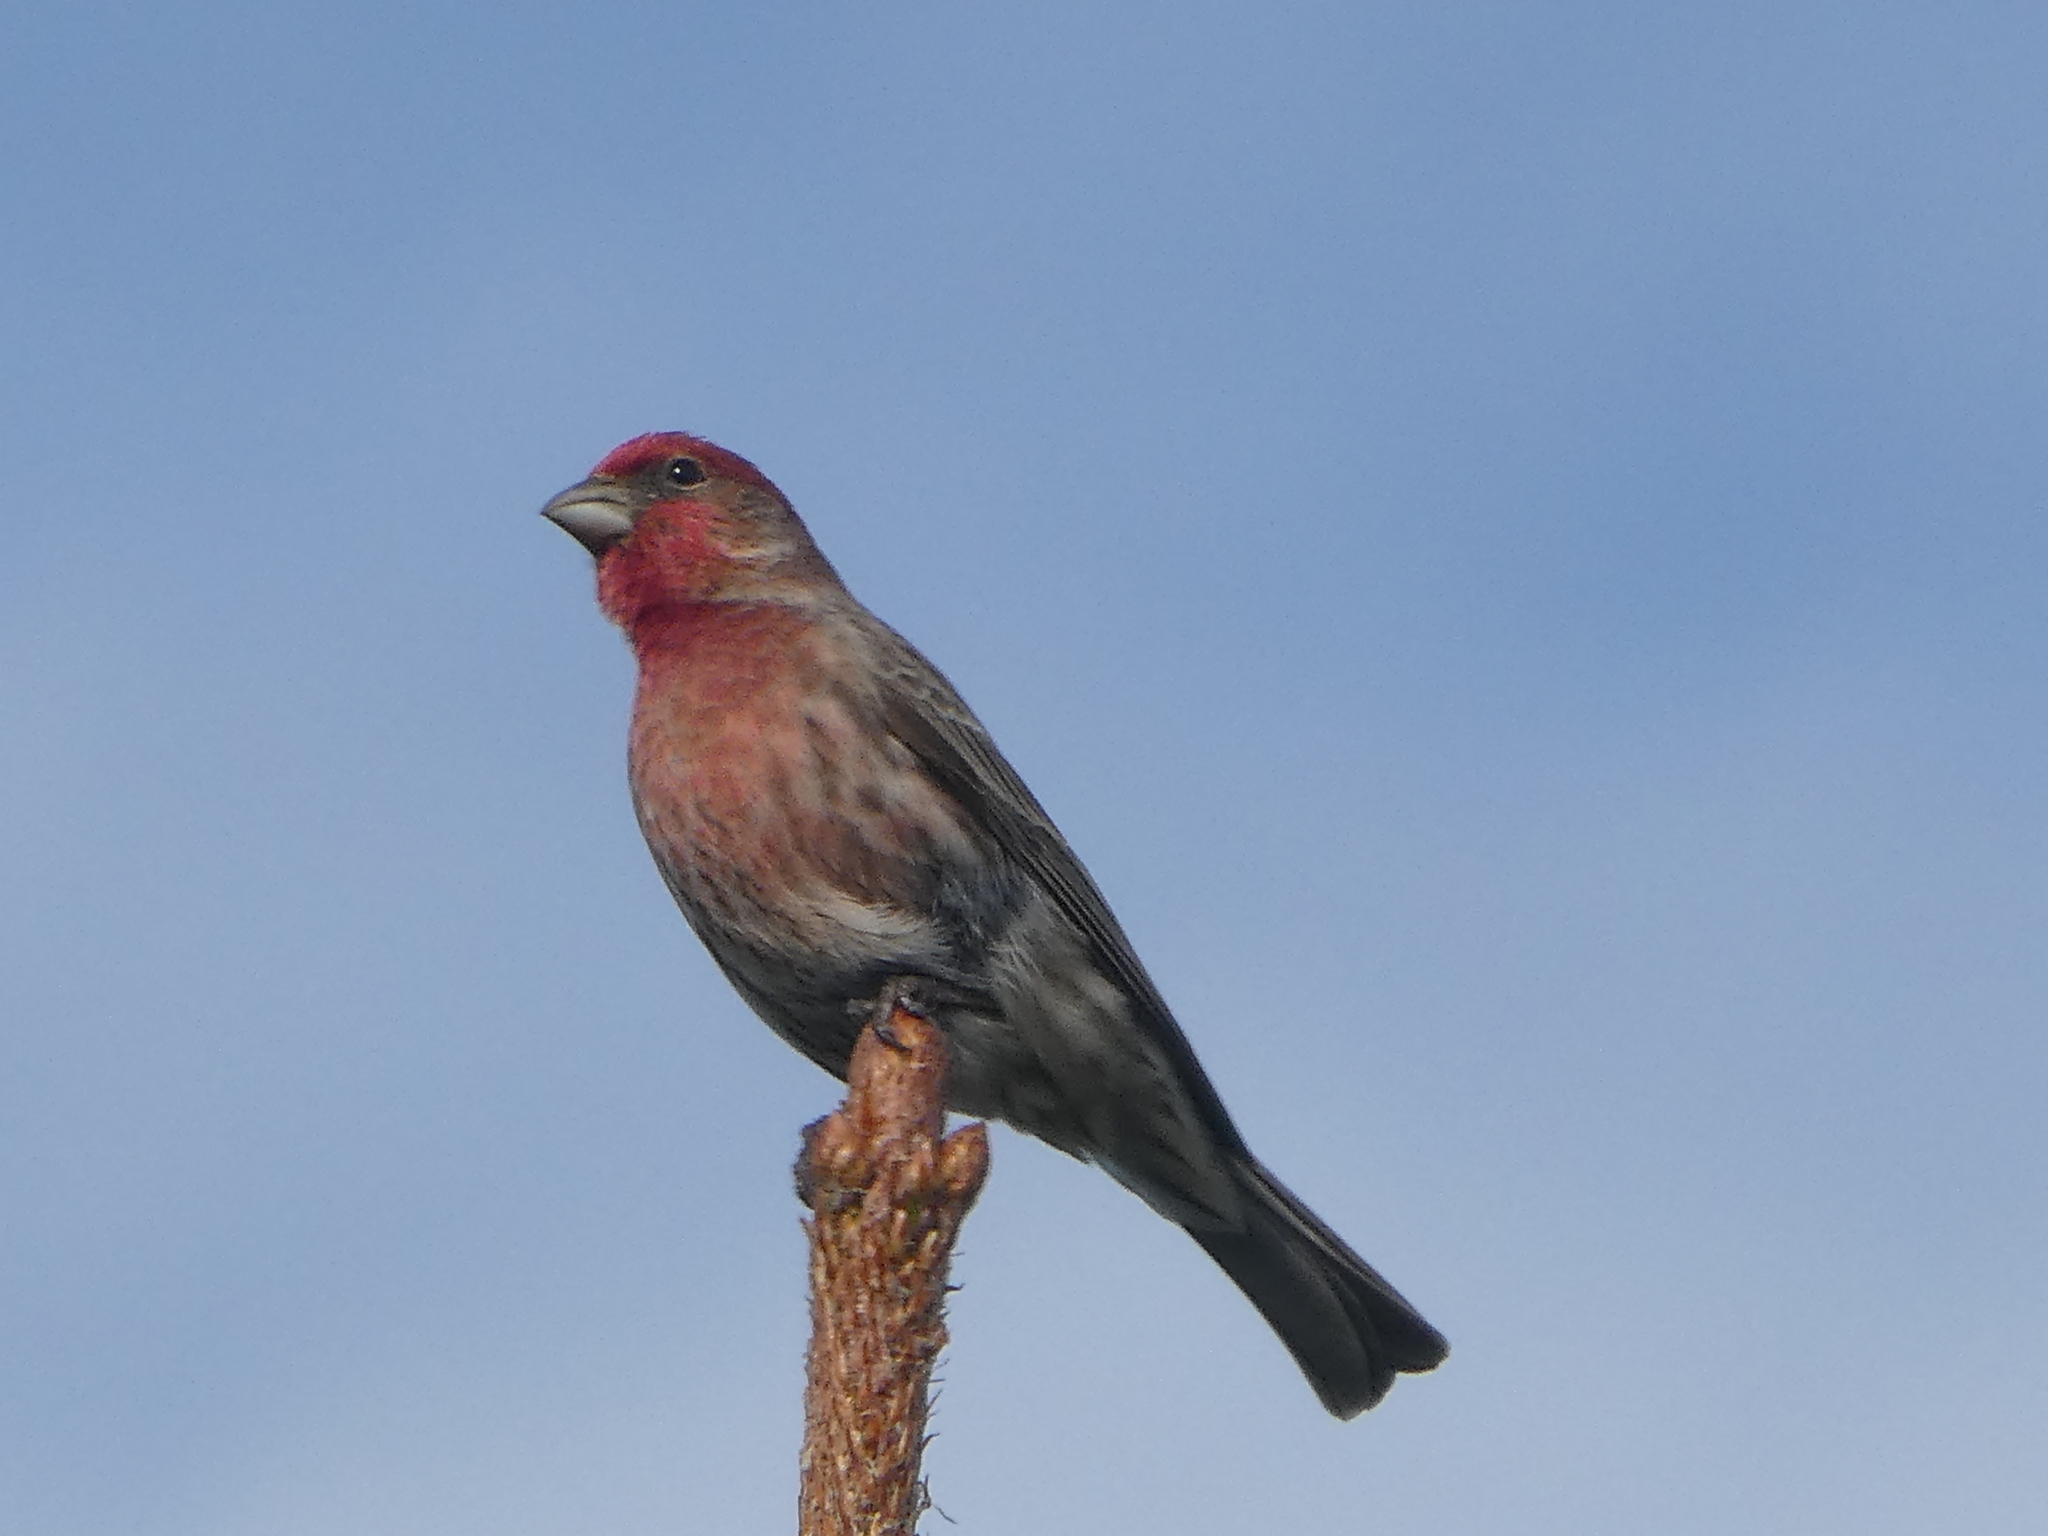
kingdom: Animalia
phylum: Chordata
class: Aves
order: Passeriformes
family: Fringillidae
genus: Haemorhous
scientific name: Haemorhous mexicanus
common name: House finch
